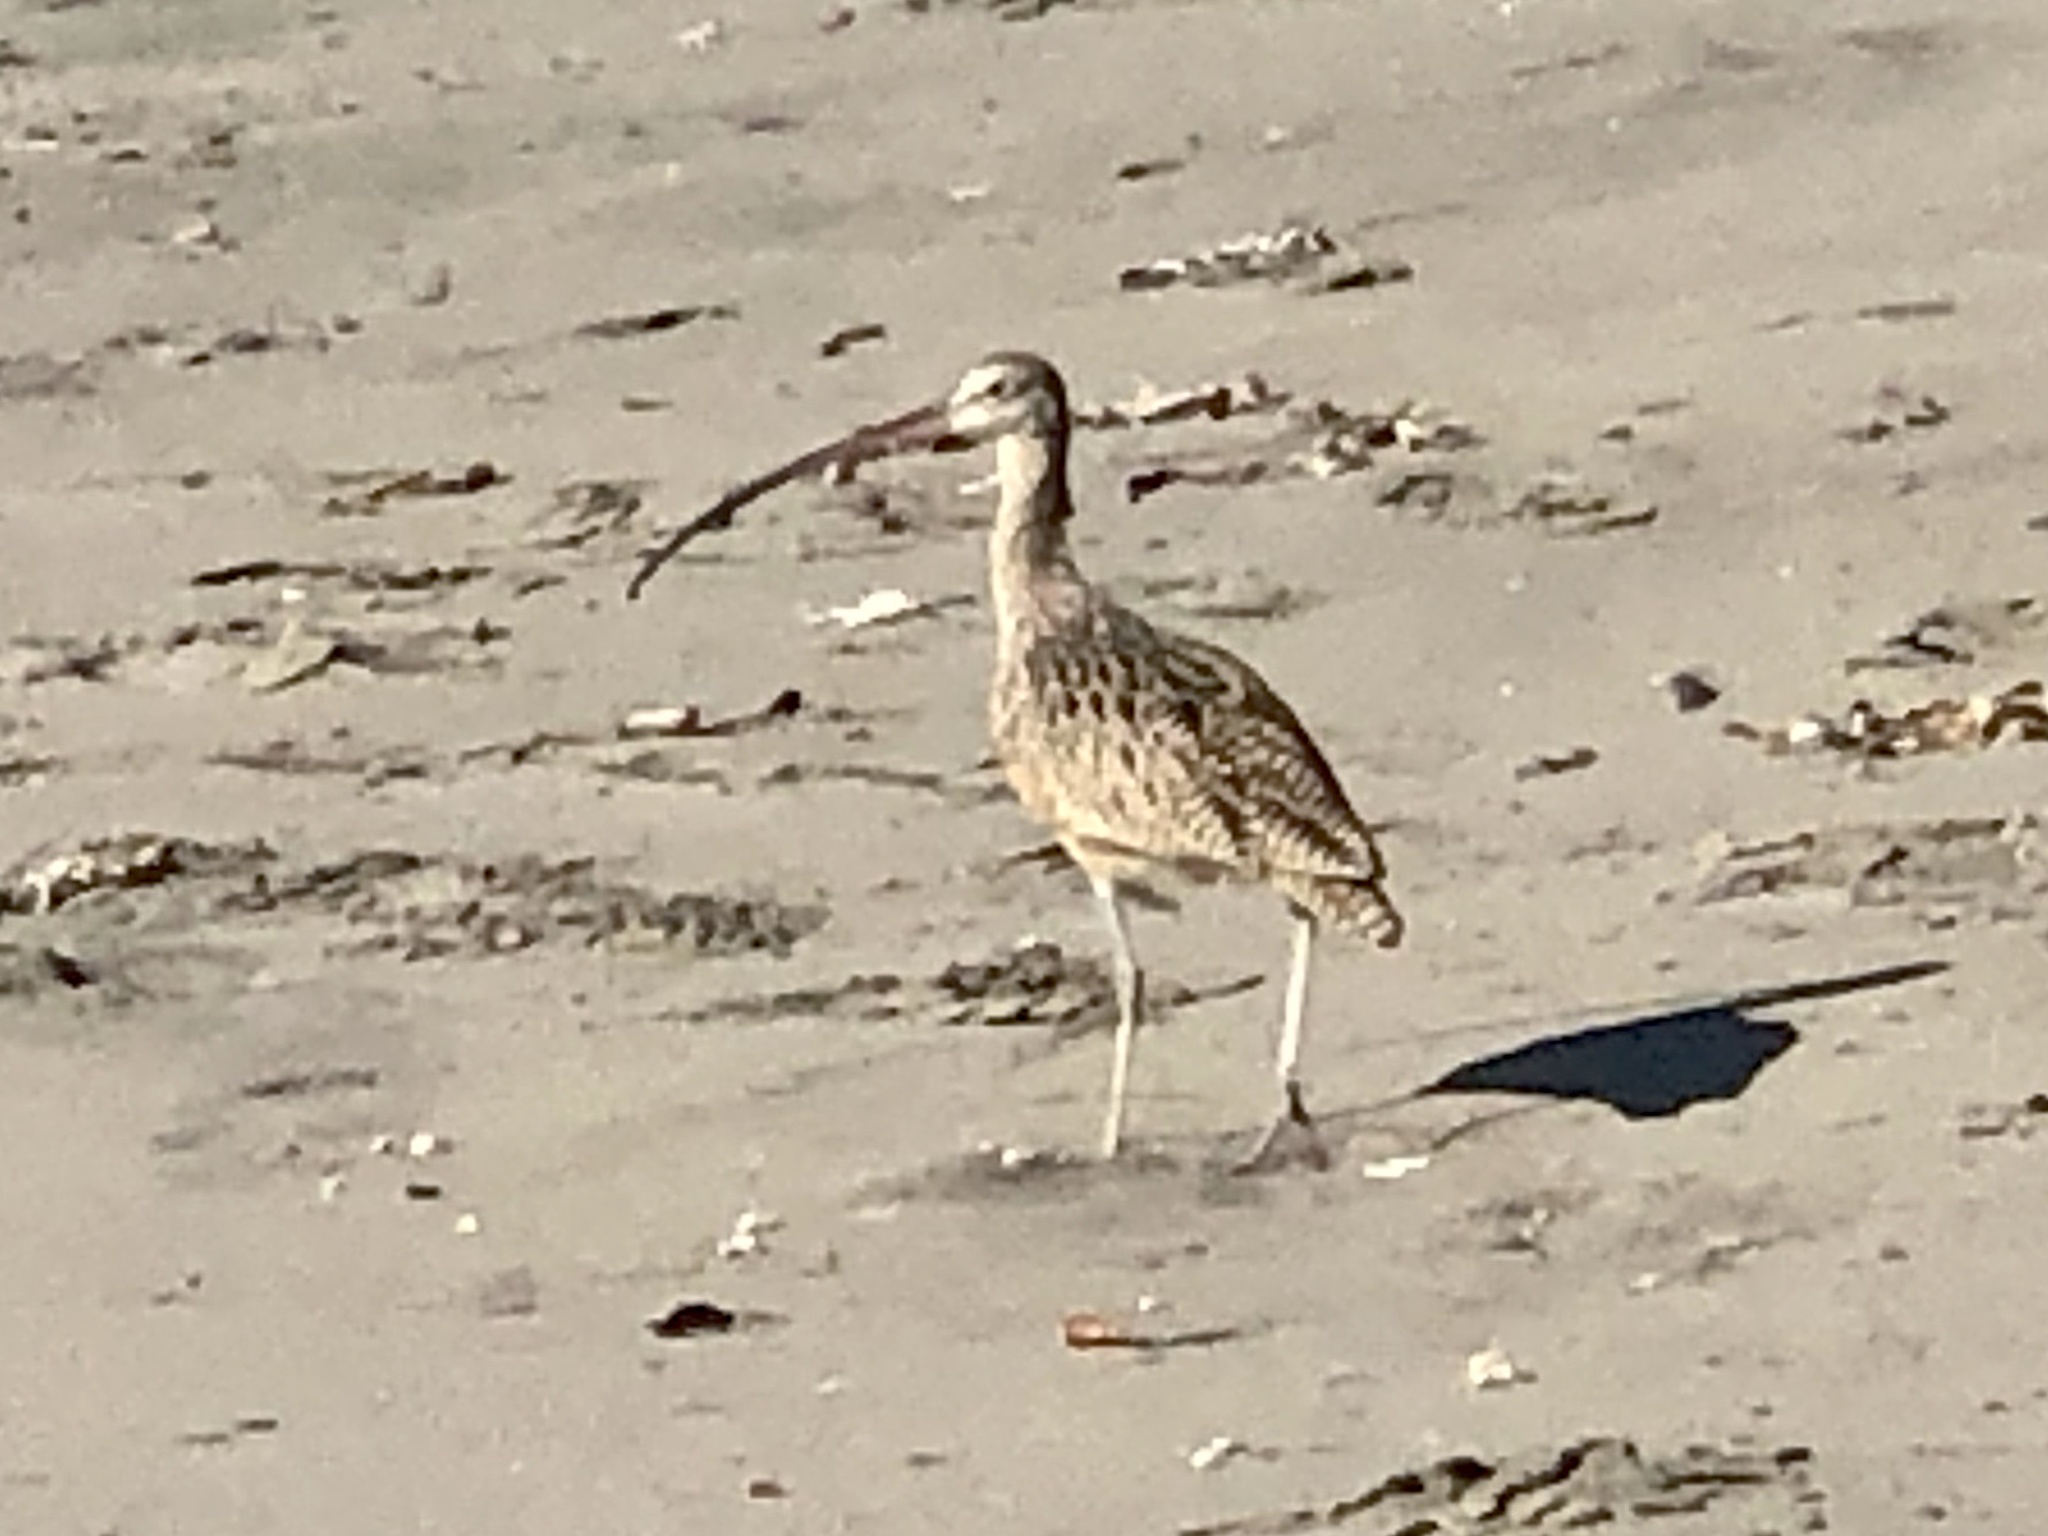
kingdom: Animalia
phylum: Chordata
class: Aves
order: Charadriiformes
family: Scolopacidae
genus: Numenius
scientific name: Numenius americanus
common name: Long-billed curlew
